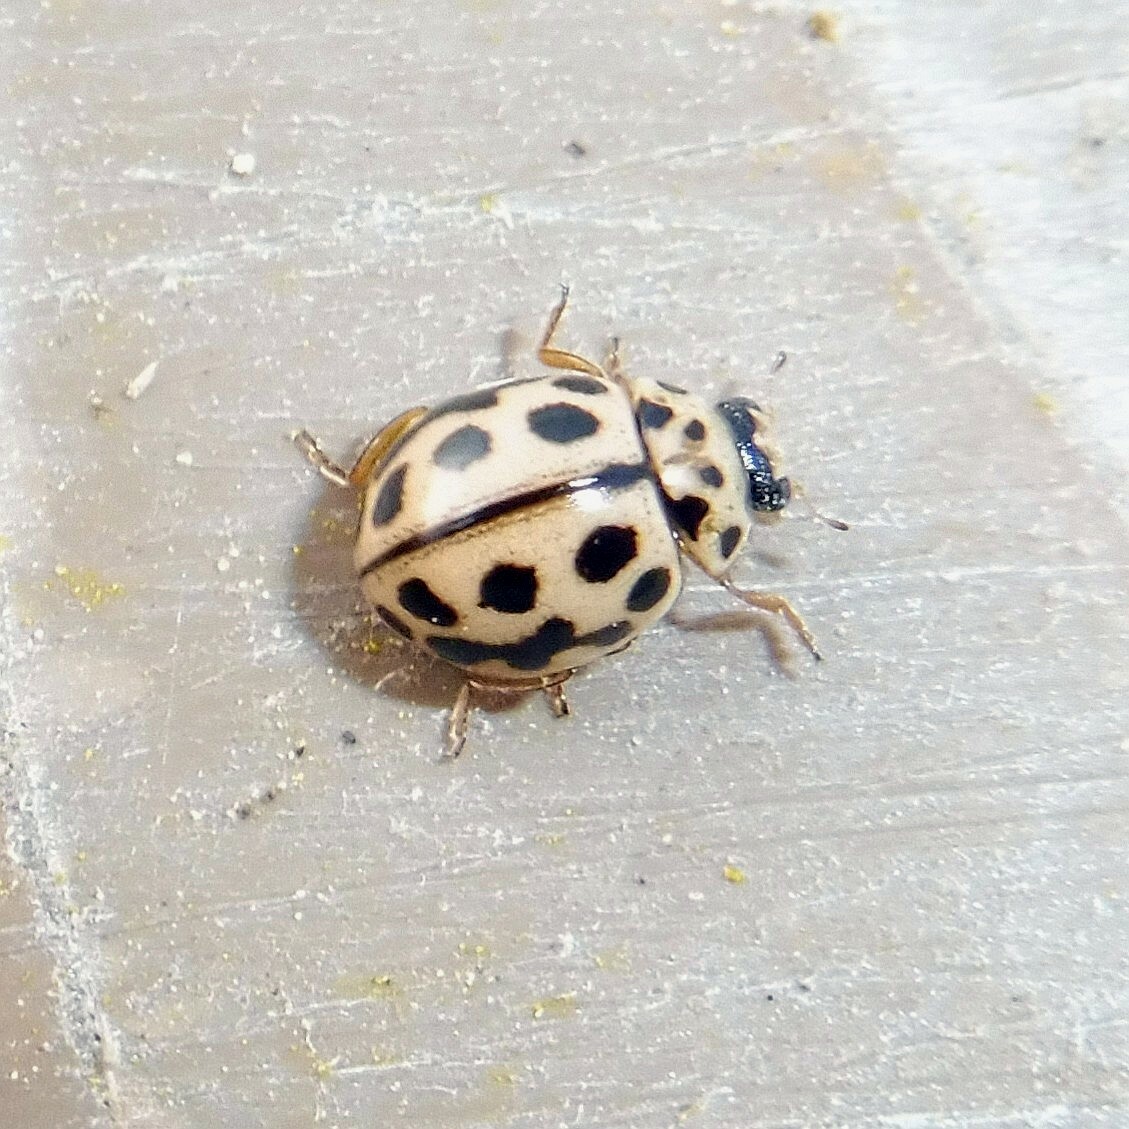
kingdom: Animalia
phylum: Arthropoda
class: Insecta
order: Coleoptera
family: Coccinellidae
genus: Tytthaspis
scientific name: Tytthaspis sedecimpunctata
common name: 16-spot ladybird
